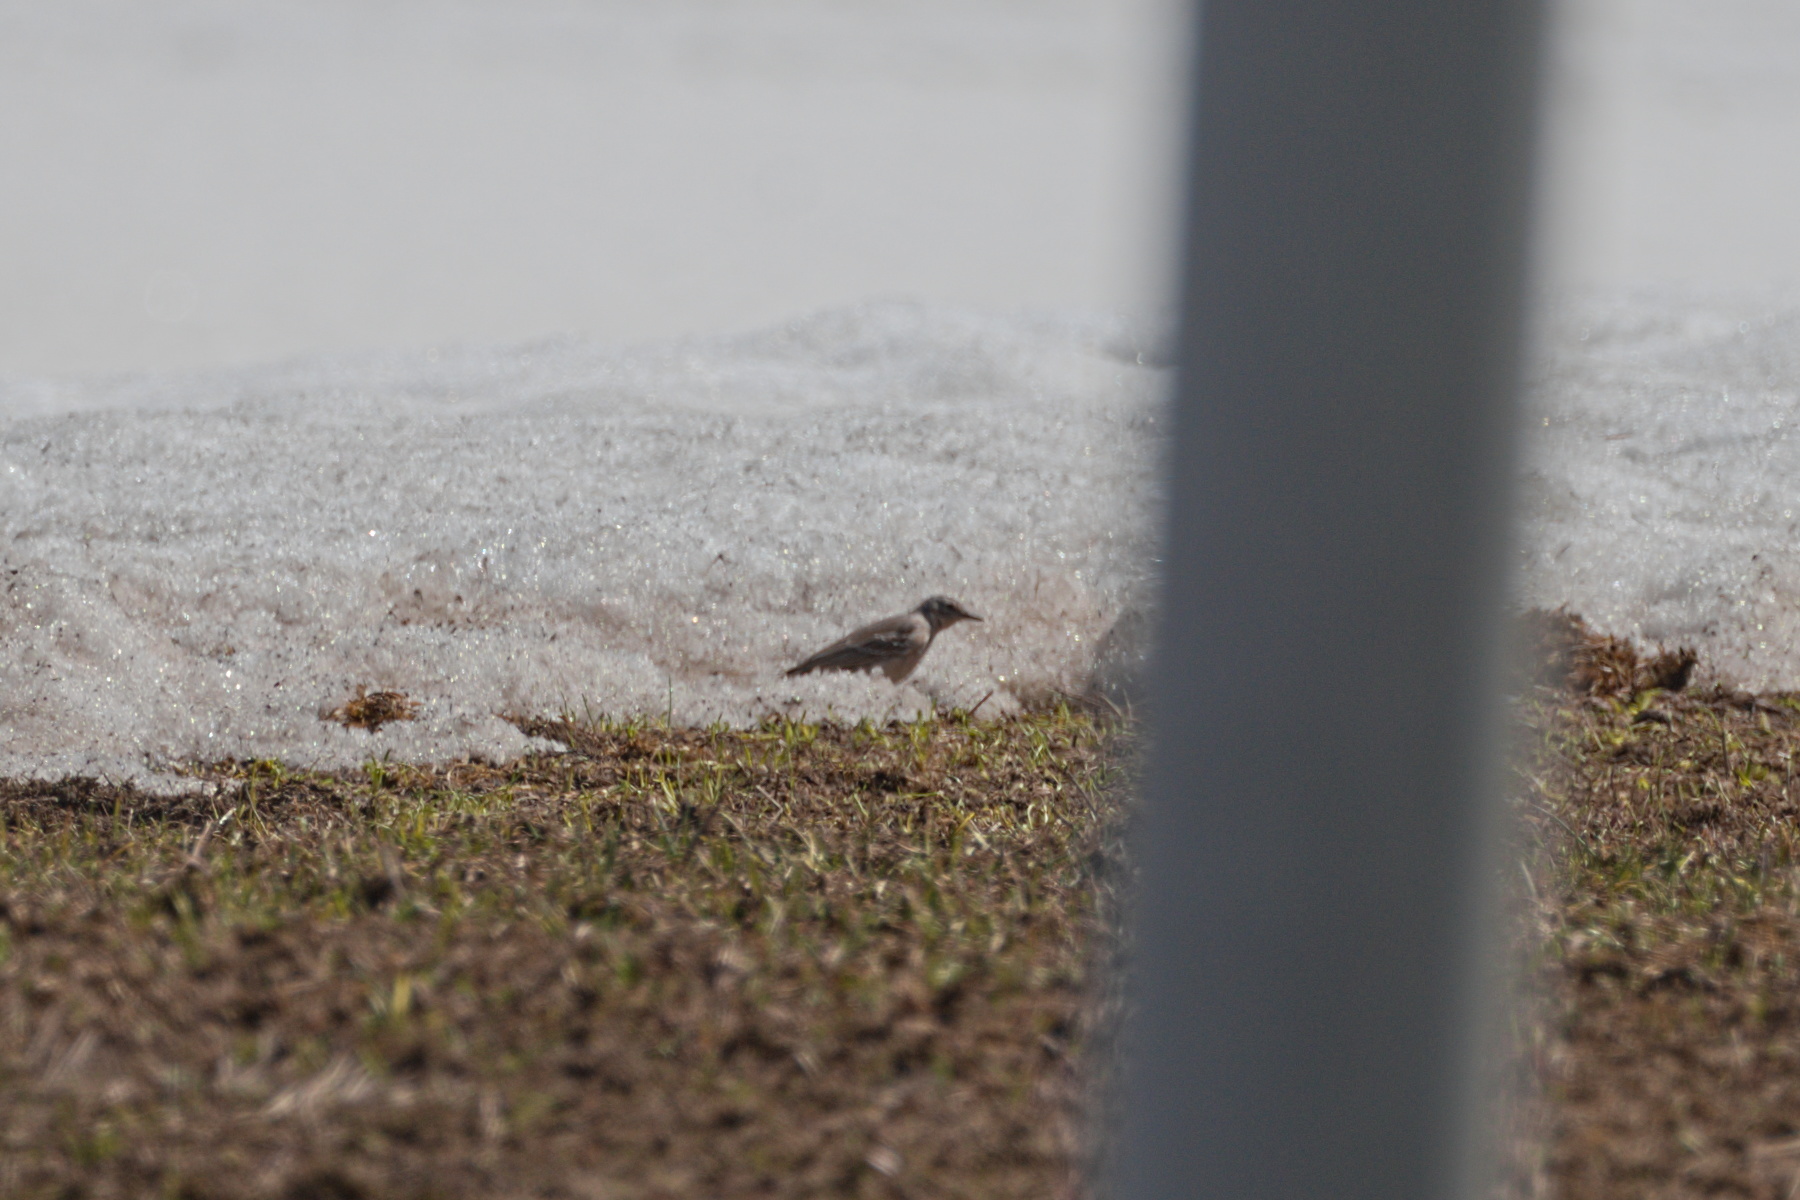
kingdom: Animalia
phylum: Chordata
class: Aves
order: Passeriformes
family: Motacillidae
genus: Motacilla
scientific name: Motacilla flava
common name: Western yellow wagtail
